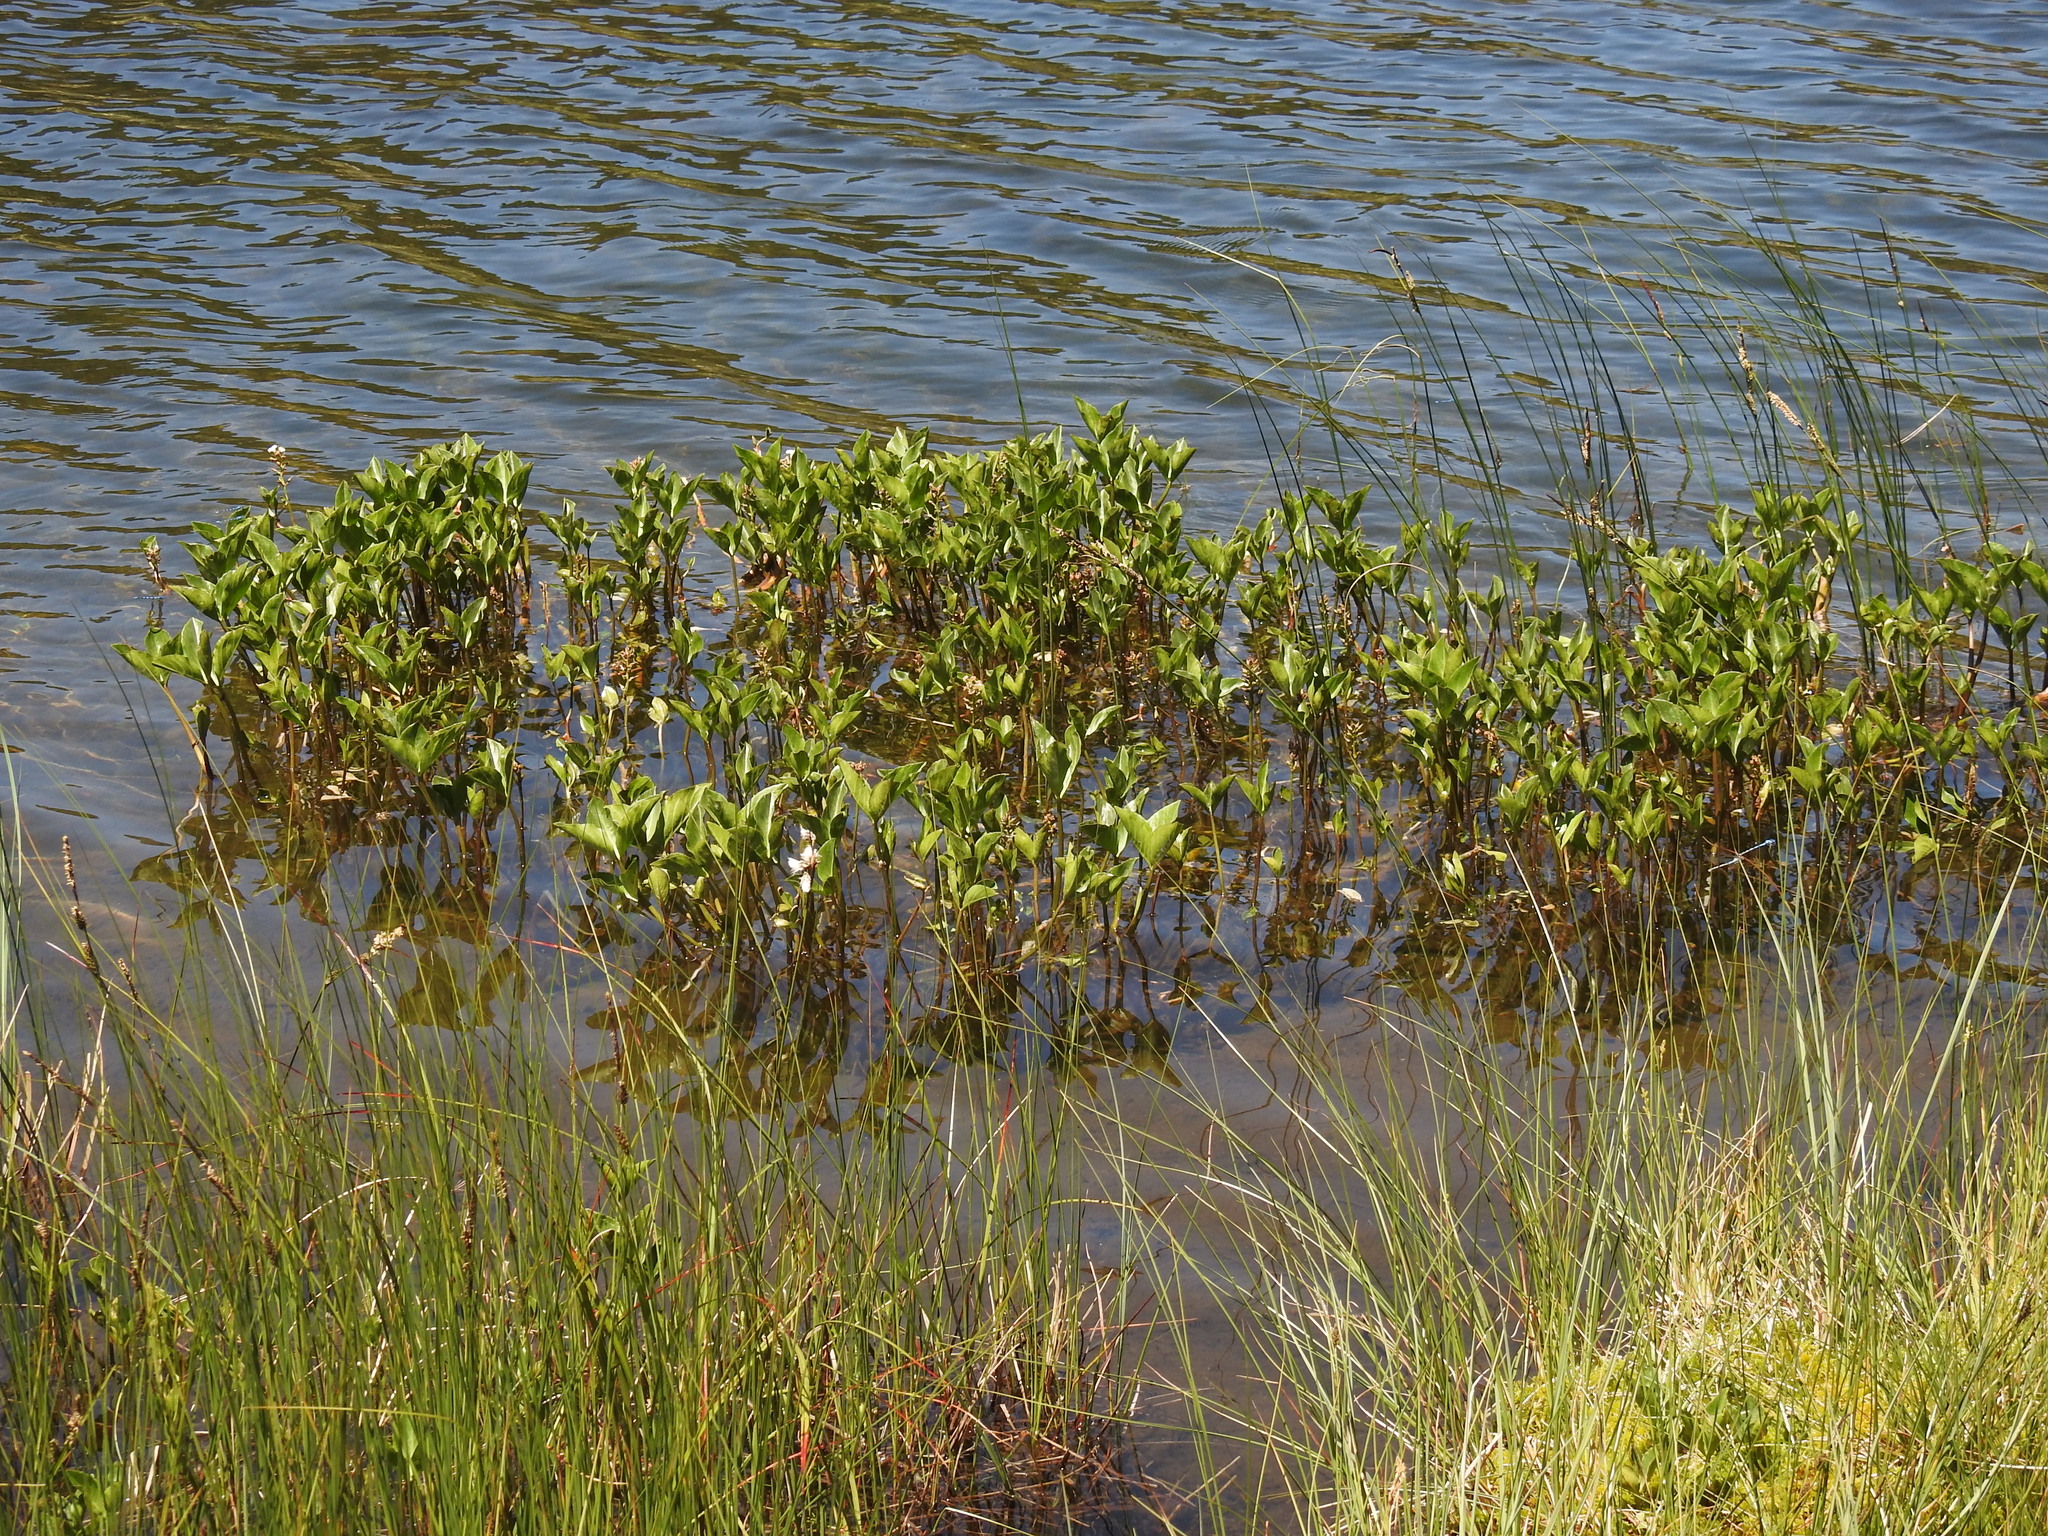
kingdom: Plantae
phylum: Tracheophyta
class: Magnoliopsida
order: Asterales
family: Menyanthaceae
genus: Menyanthes
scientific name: Menyanthes trifoliata
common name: Bogbean
